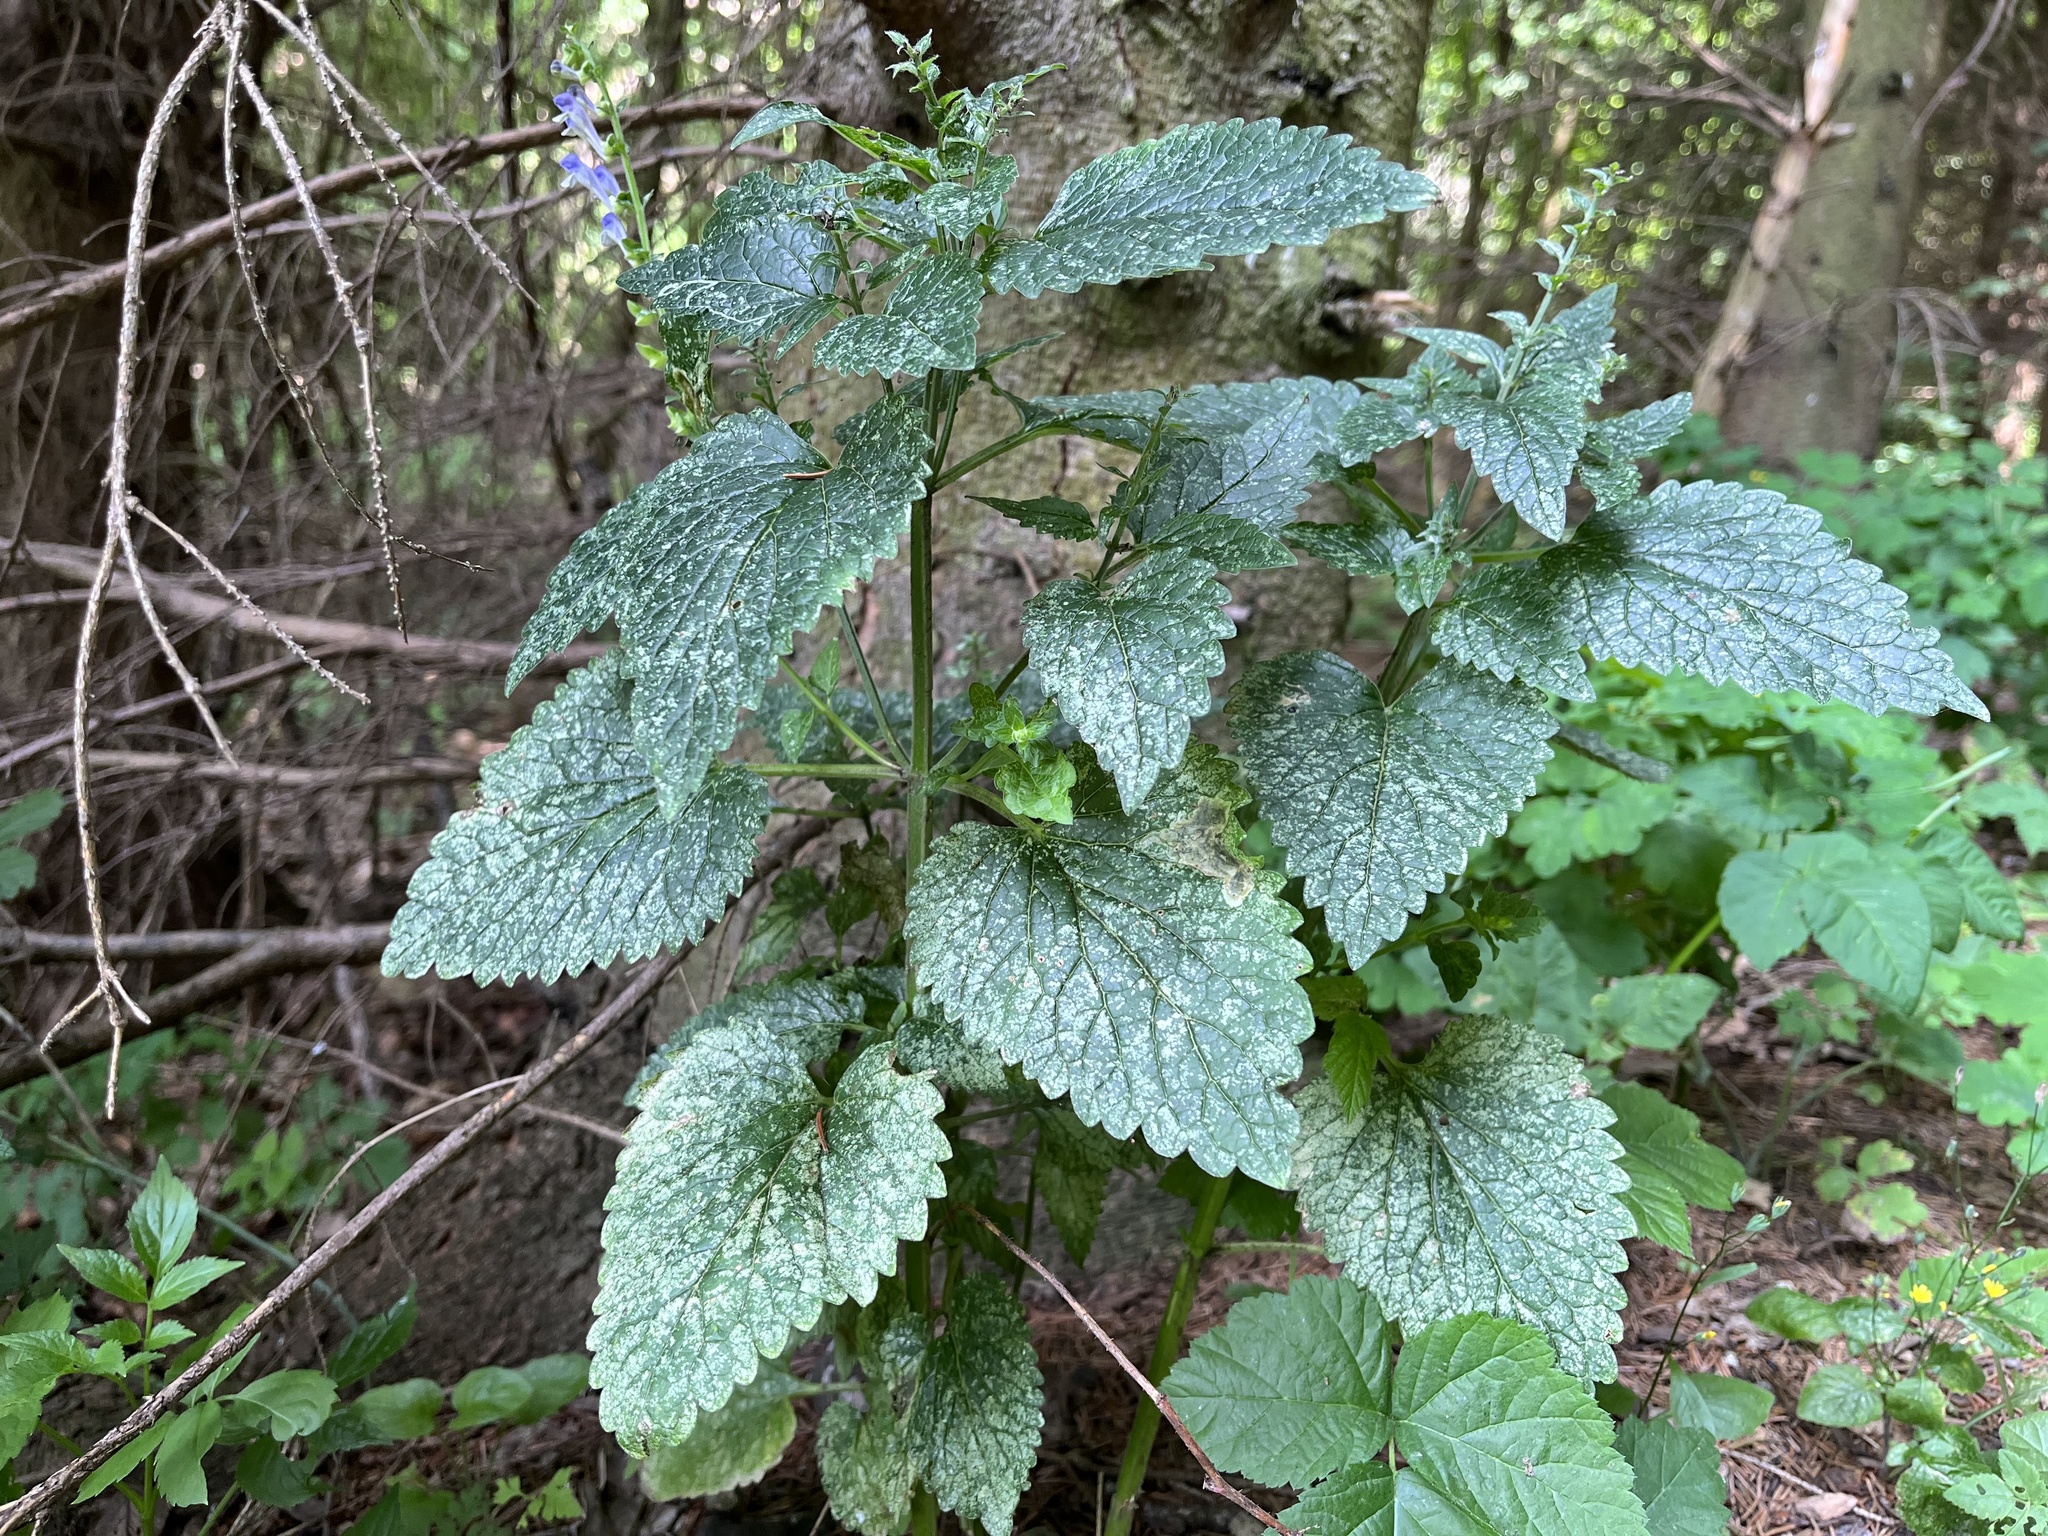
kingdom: Plantae
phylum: Tracheophyta
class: Magnoliopsida
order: Lamiales
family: Lamiaceae
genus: Scutellaria
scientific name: Scutellaria altissima
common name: Somerset skullcap
